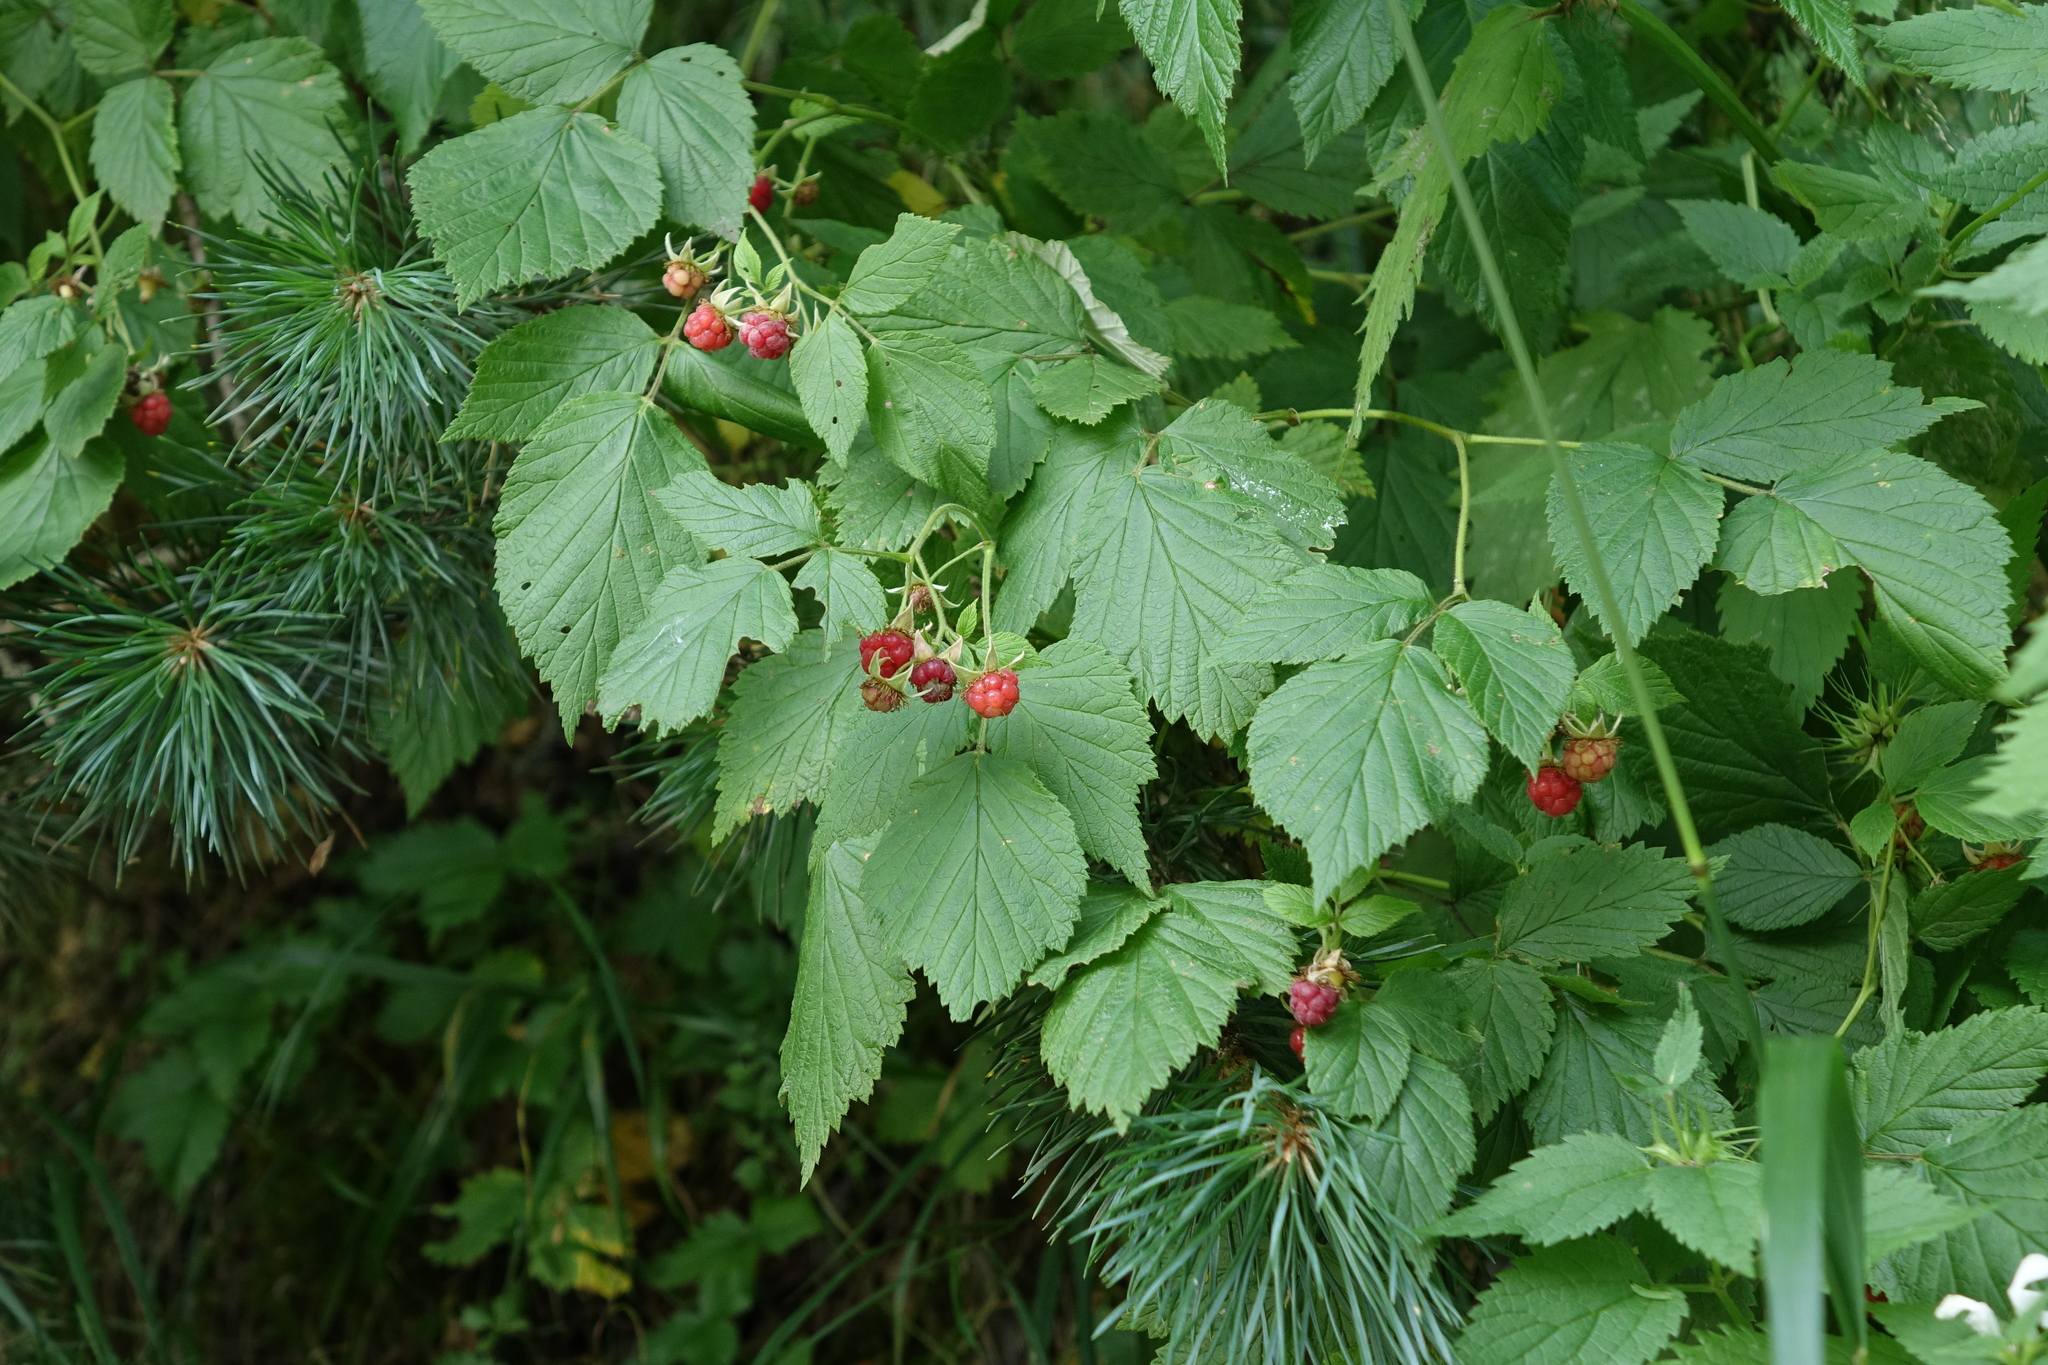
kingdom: Plantae
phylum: Tracheophyta
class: Magnoliopsida
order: Rosales
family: Rosaceae
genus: Rubus
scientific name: Rubus idaeus
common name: Raspberry
